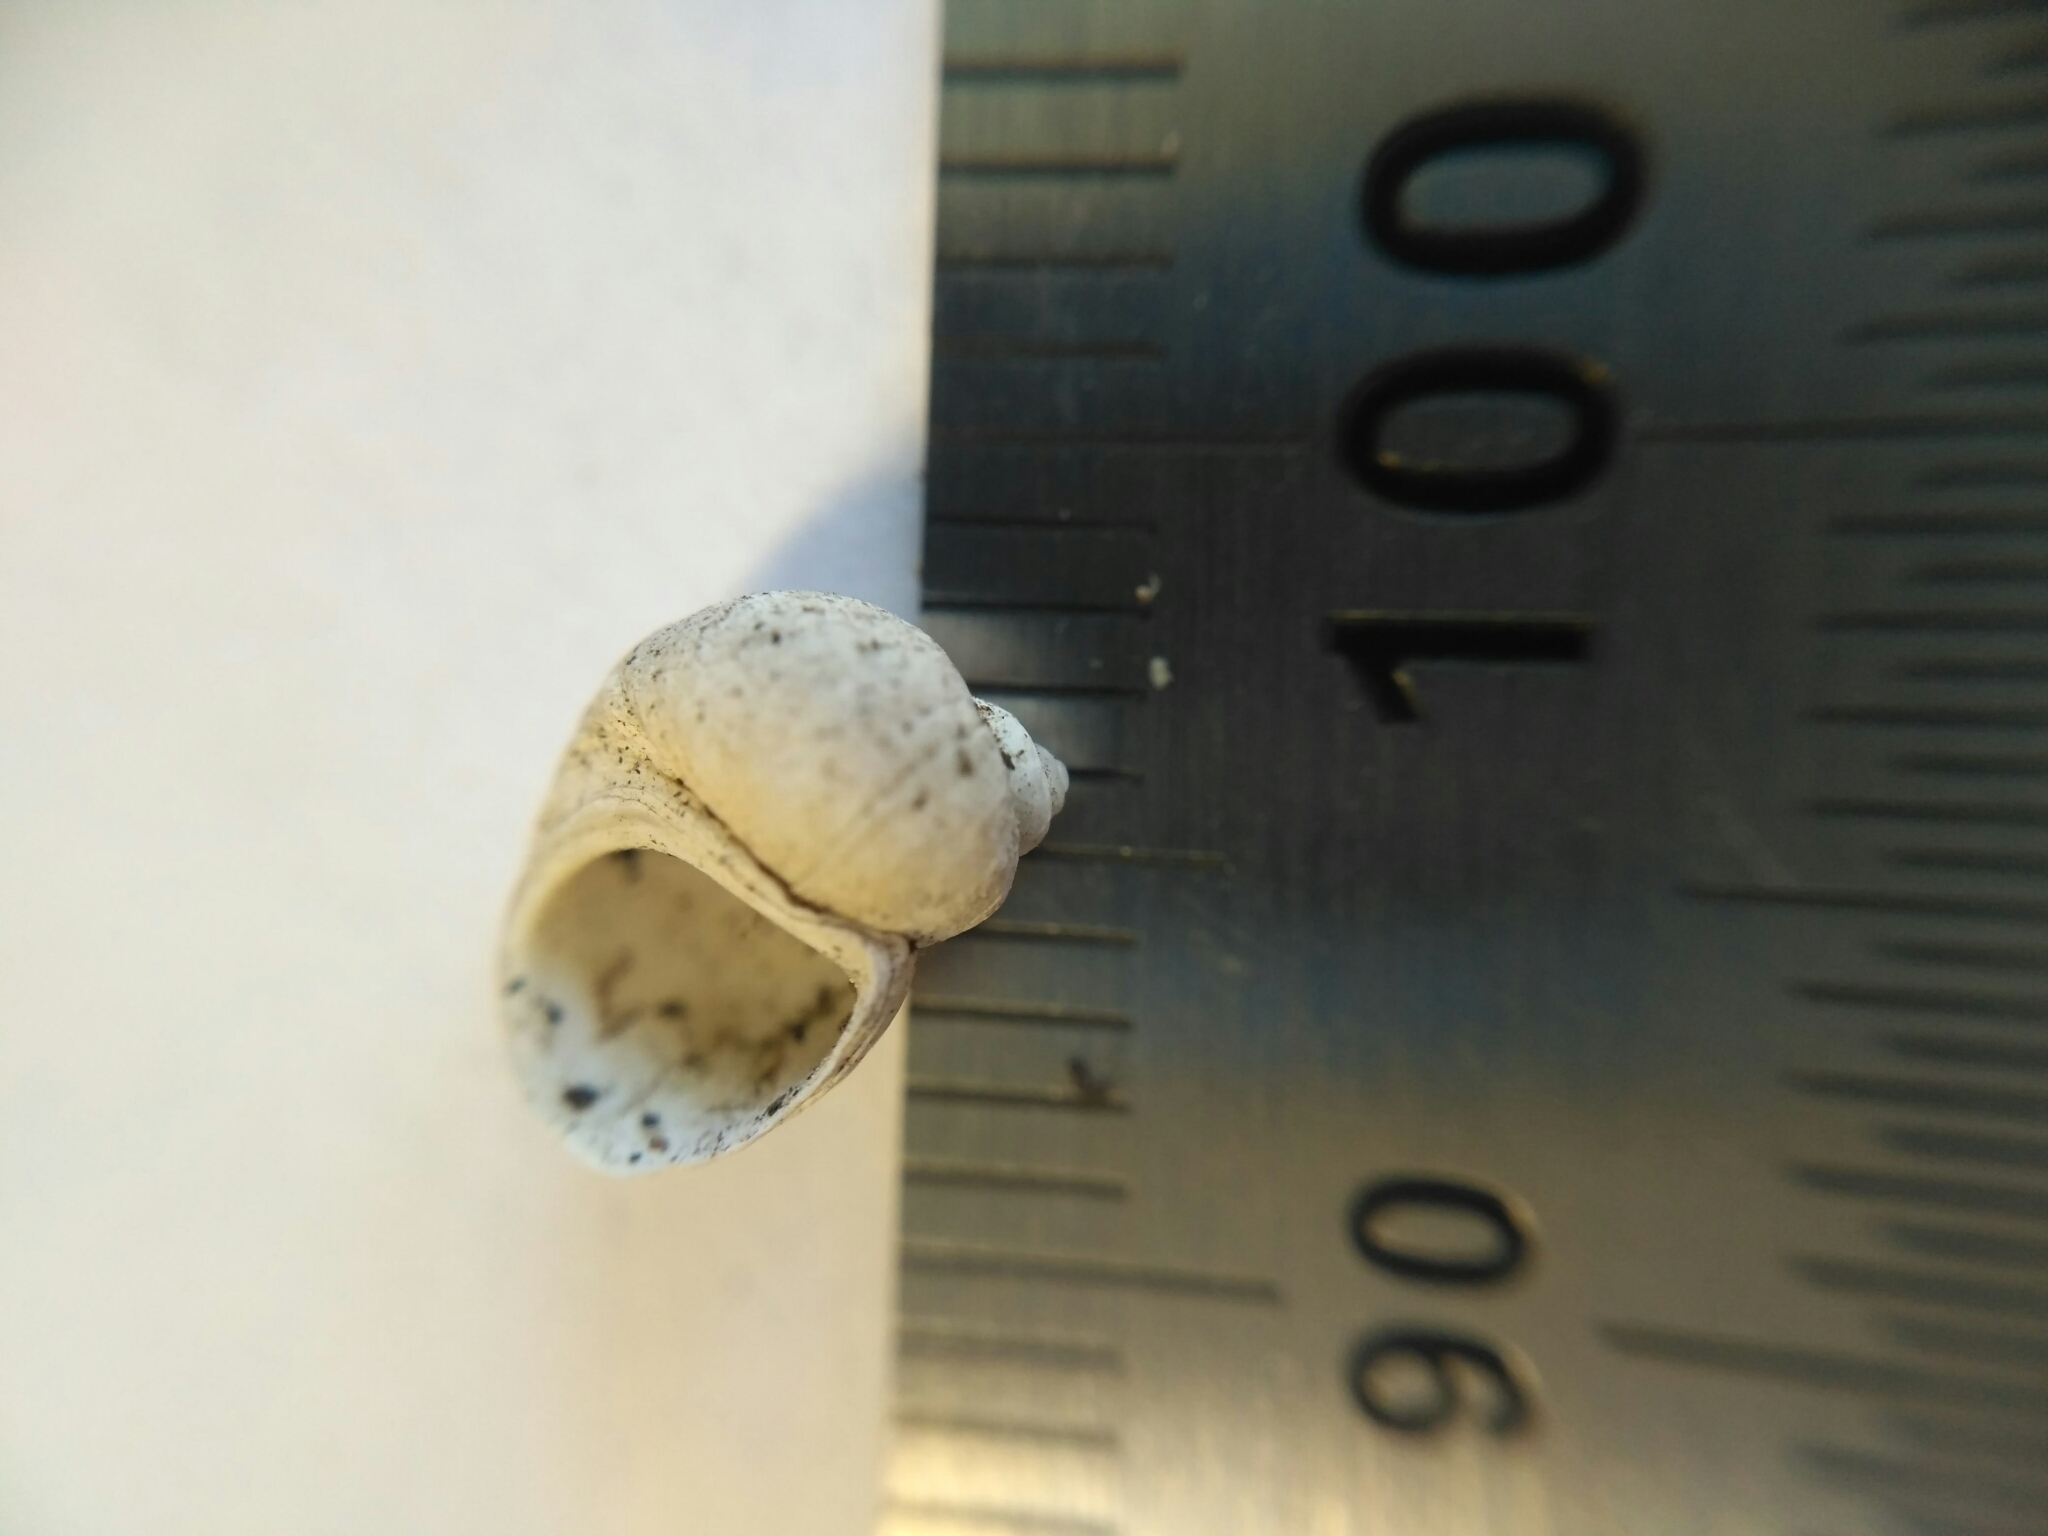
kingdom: Animalia
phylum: Mollusca
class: Gastropoda
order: Littorinimorpha
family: Lithoglyphidae
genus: Lithoglyphus
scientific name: Lithoglyphus naticoides
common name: Gravel snail
